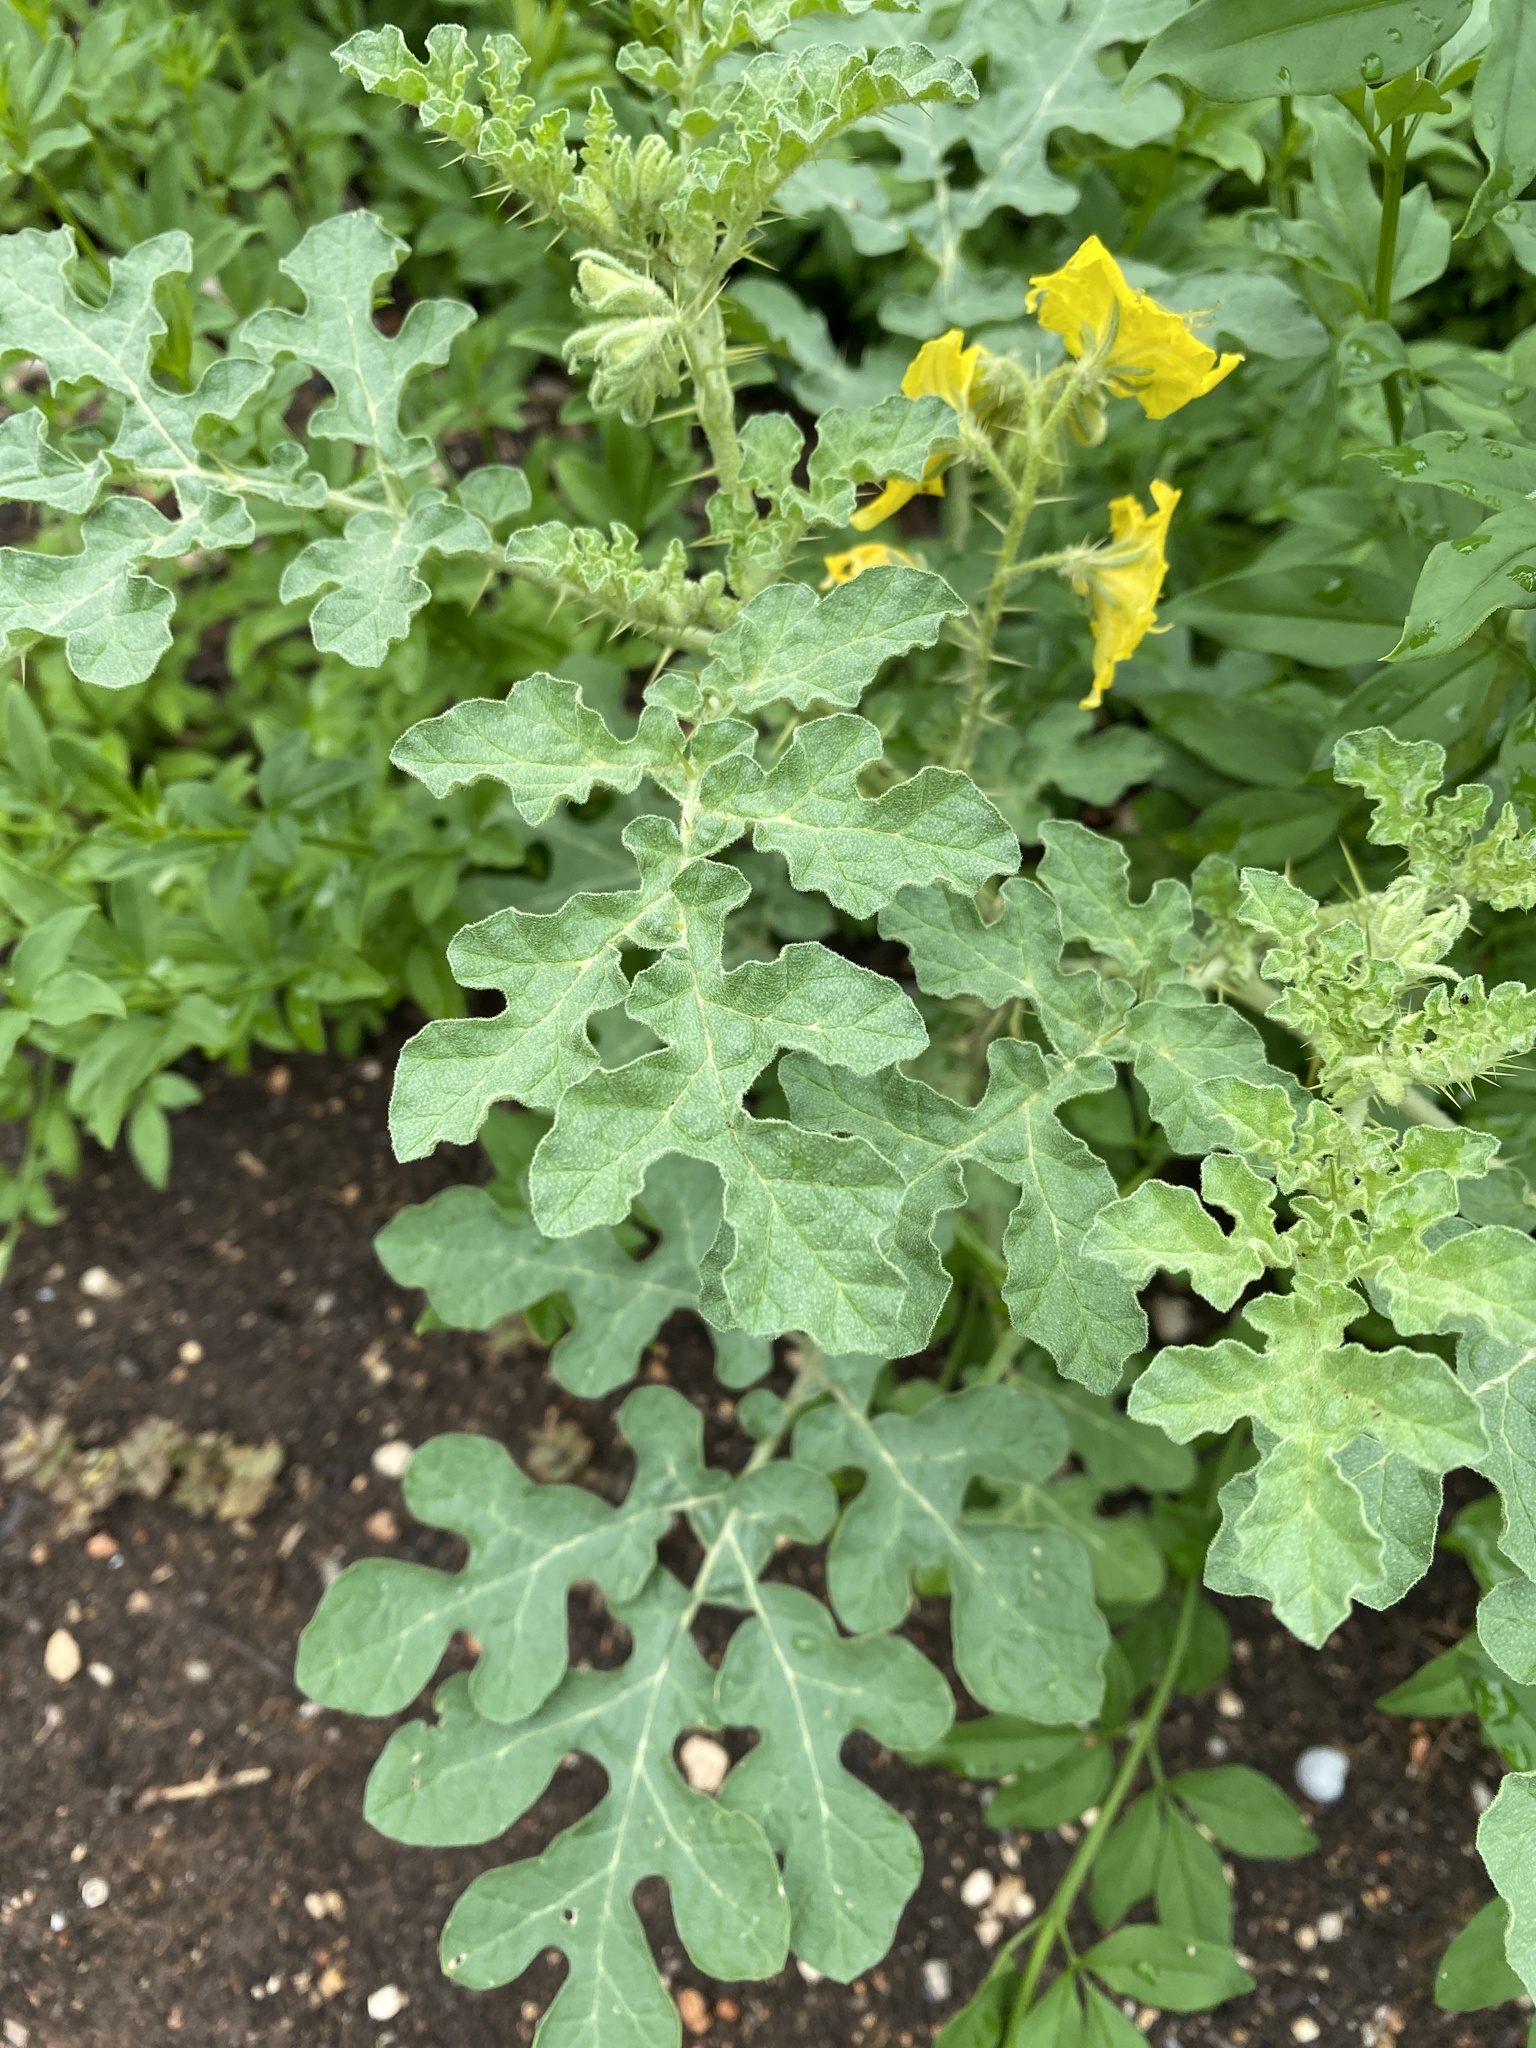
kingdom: Plantae
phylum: Tracheophyta
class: Magnoliopsida
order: Solanales
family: Solanaceae
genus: Solanum
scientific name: Solanum angustifolium
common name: Buffalobur nightshade
